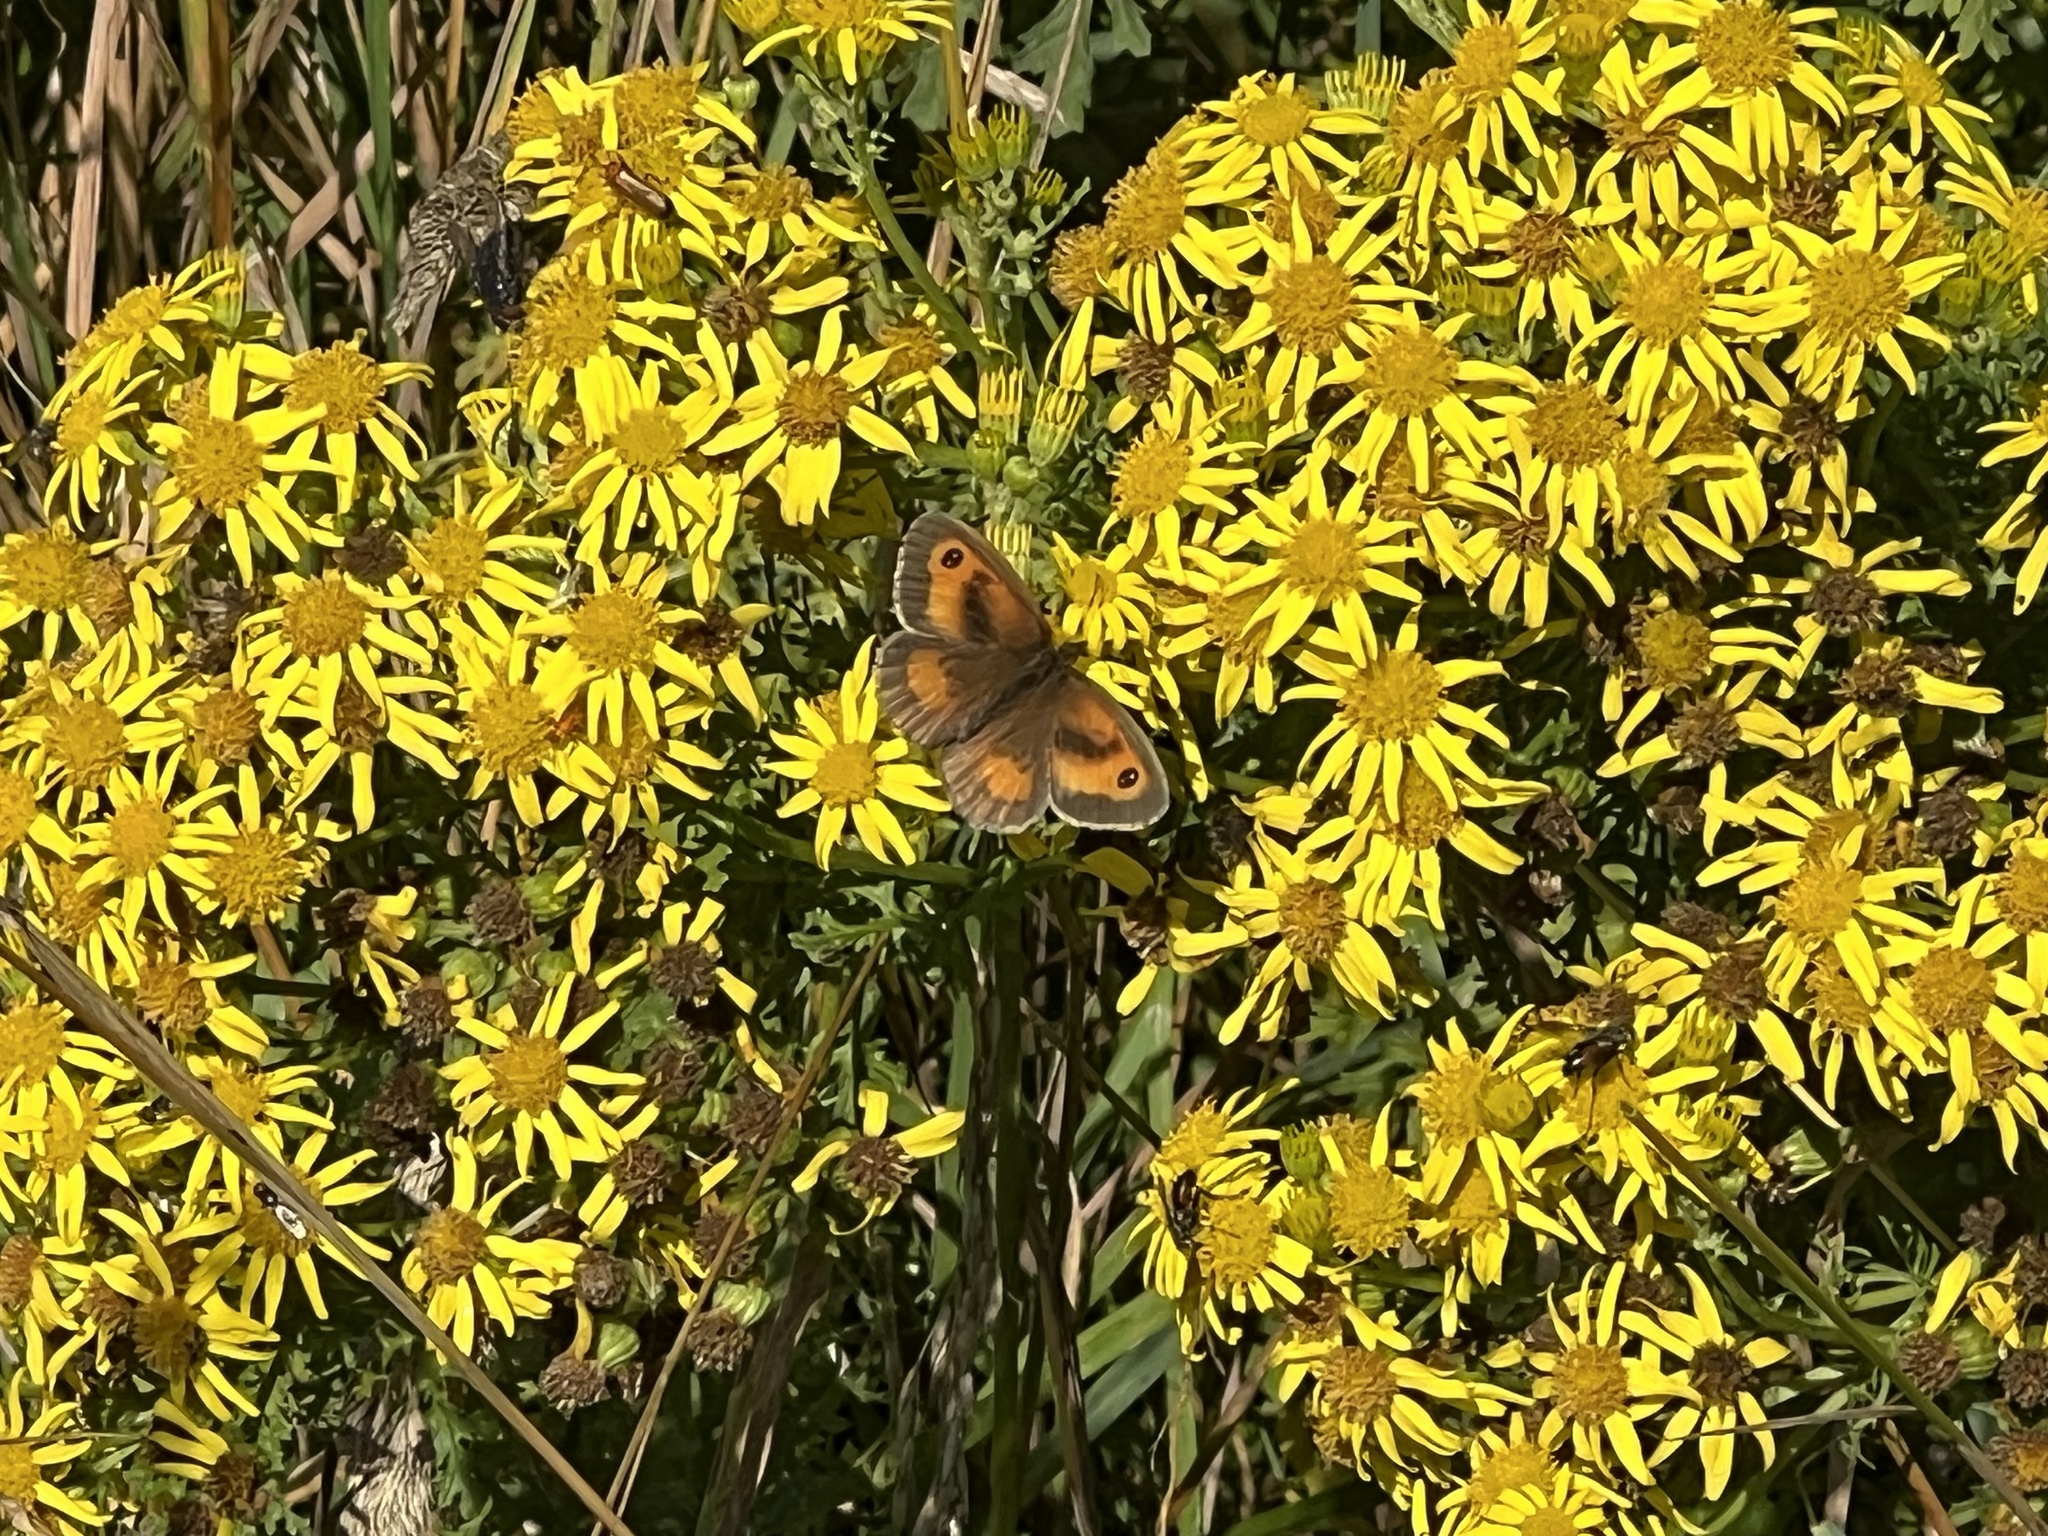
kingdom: Animalia
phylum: Arthropoda
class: Insecta
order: Lepidoptera
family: Nymphalidae
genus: Pyronia
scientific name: Pyronia tithonus
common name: Gatekeeper
